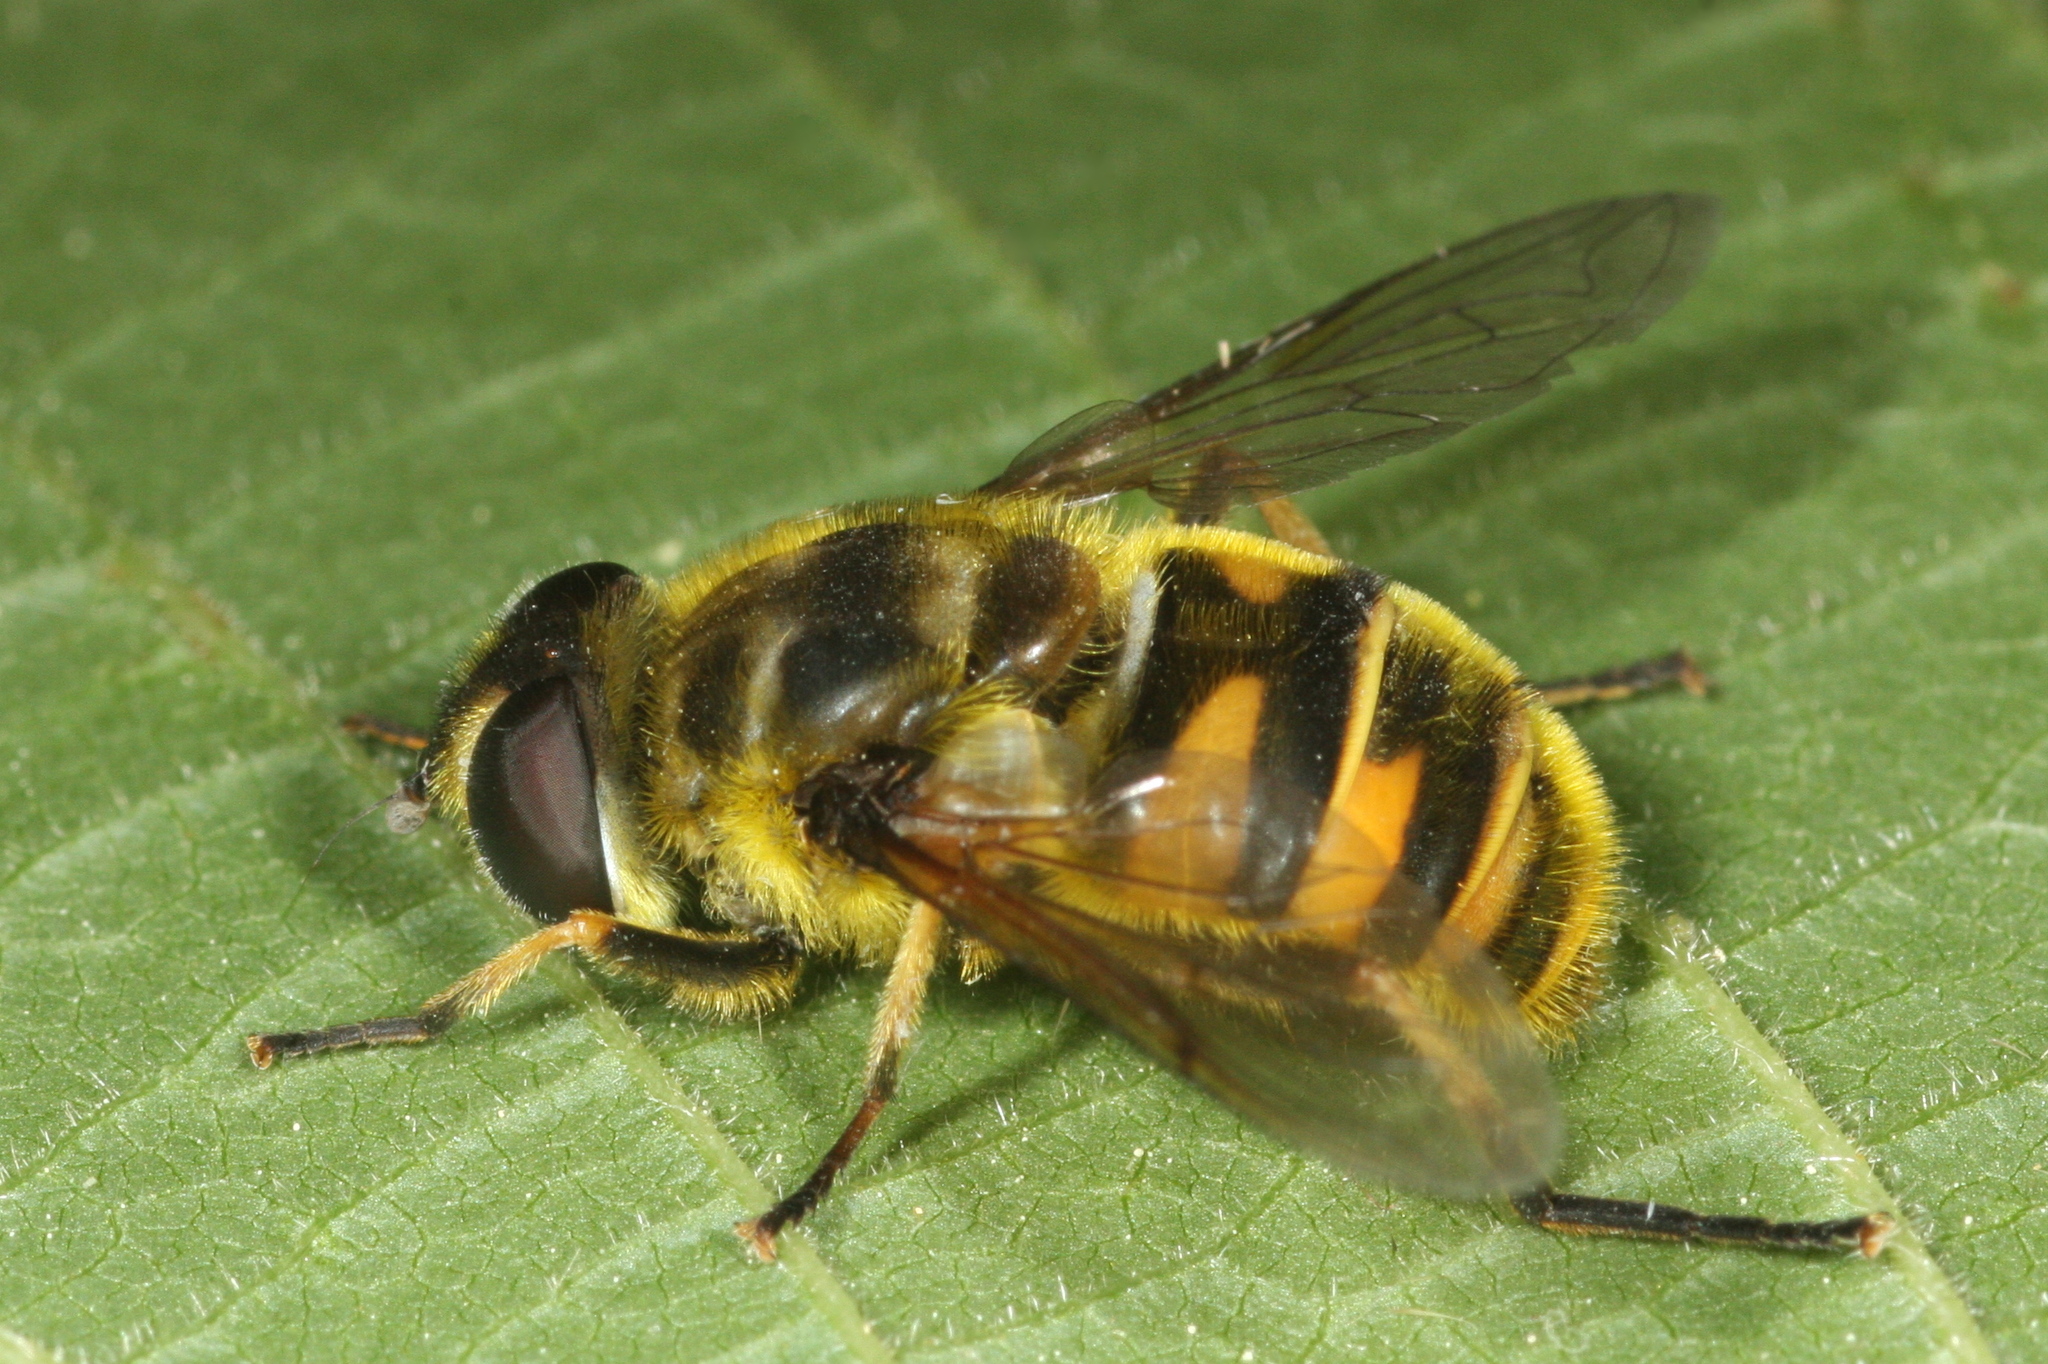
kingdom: Animalia
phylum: Arthropoda
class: Insecta
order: Diptera
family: Syrphidae
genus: Myathropa
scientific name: Myathropa florea
